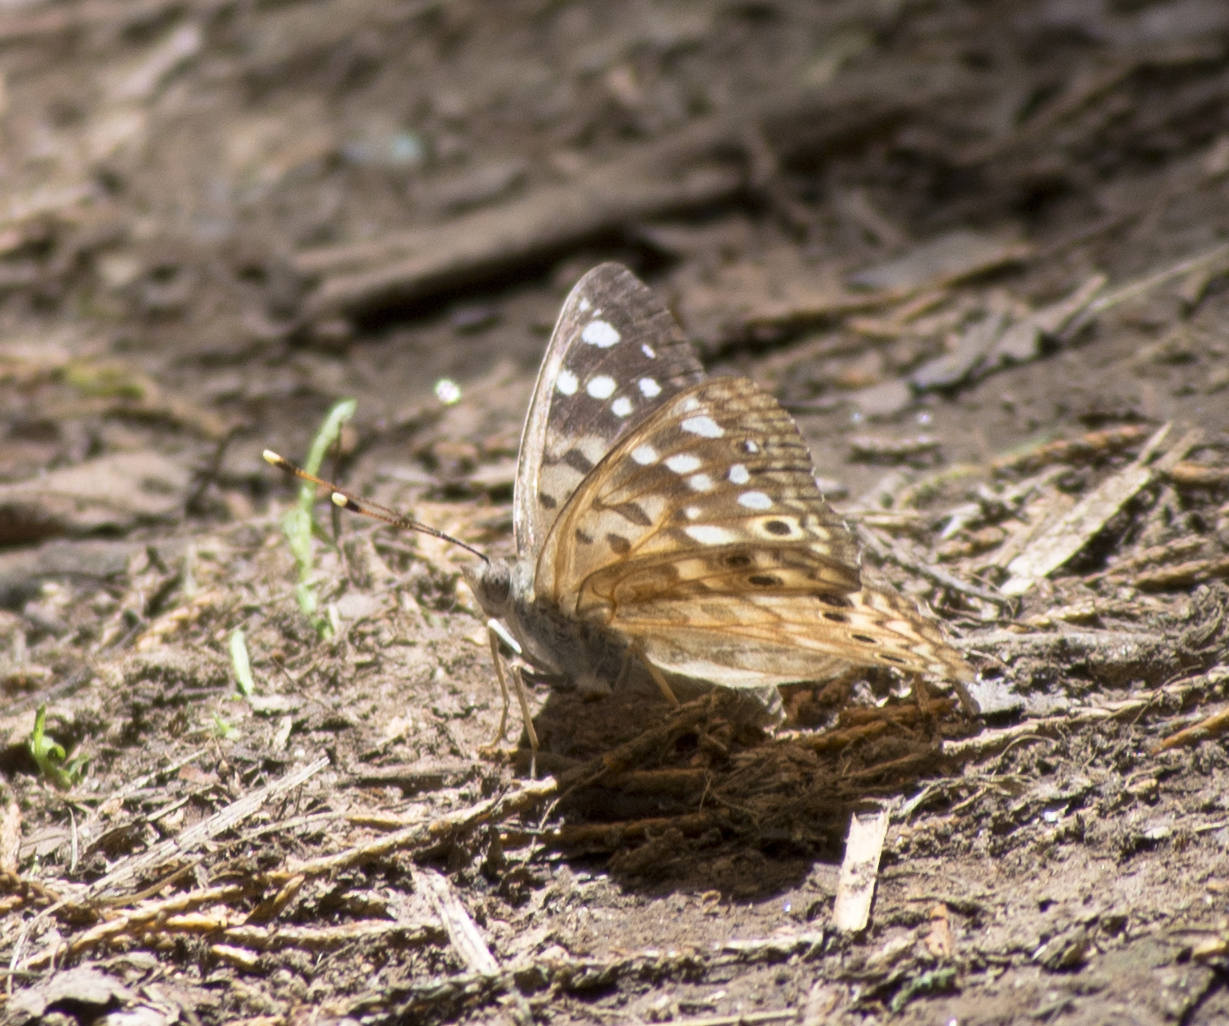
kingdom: Animalia
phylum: Arthropoda
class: Insecta
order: Lepidoptera
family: Nymphalidae
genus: Asterocampa
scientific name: Asterocampa celtis
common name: Hackberry emperor
